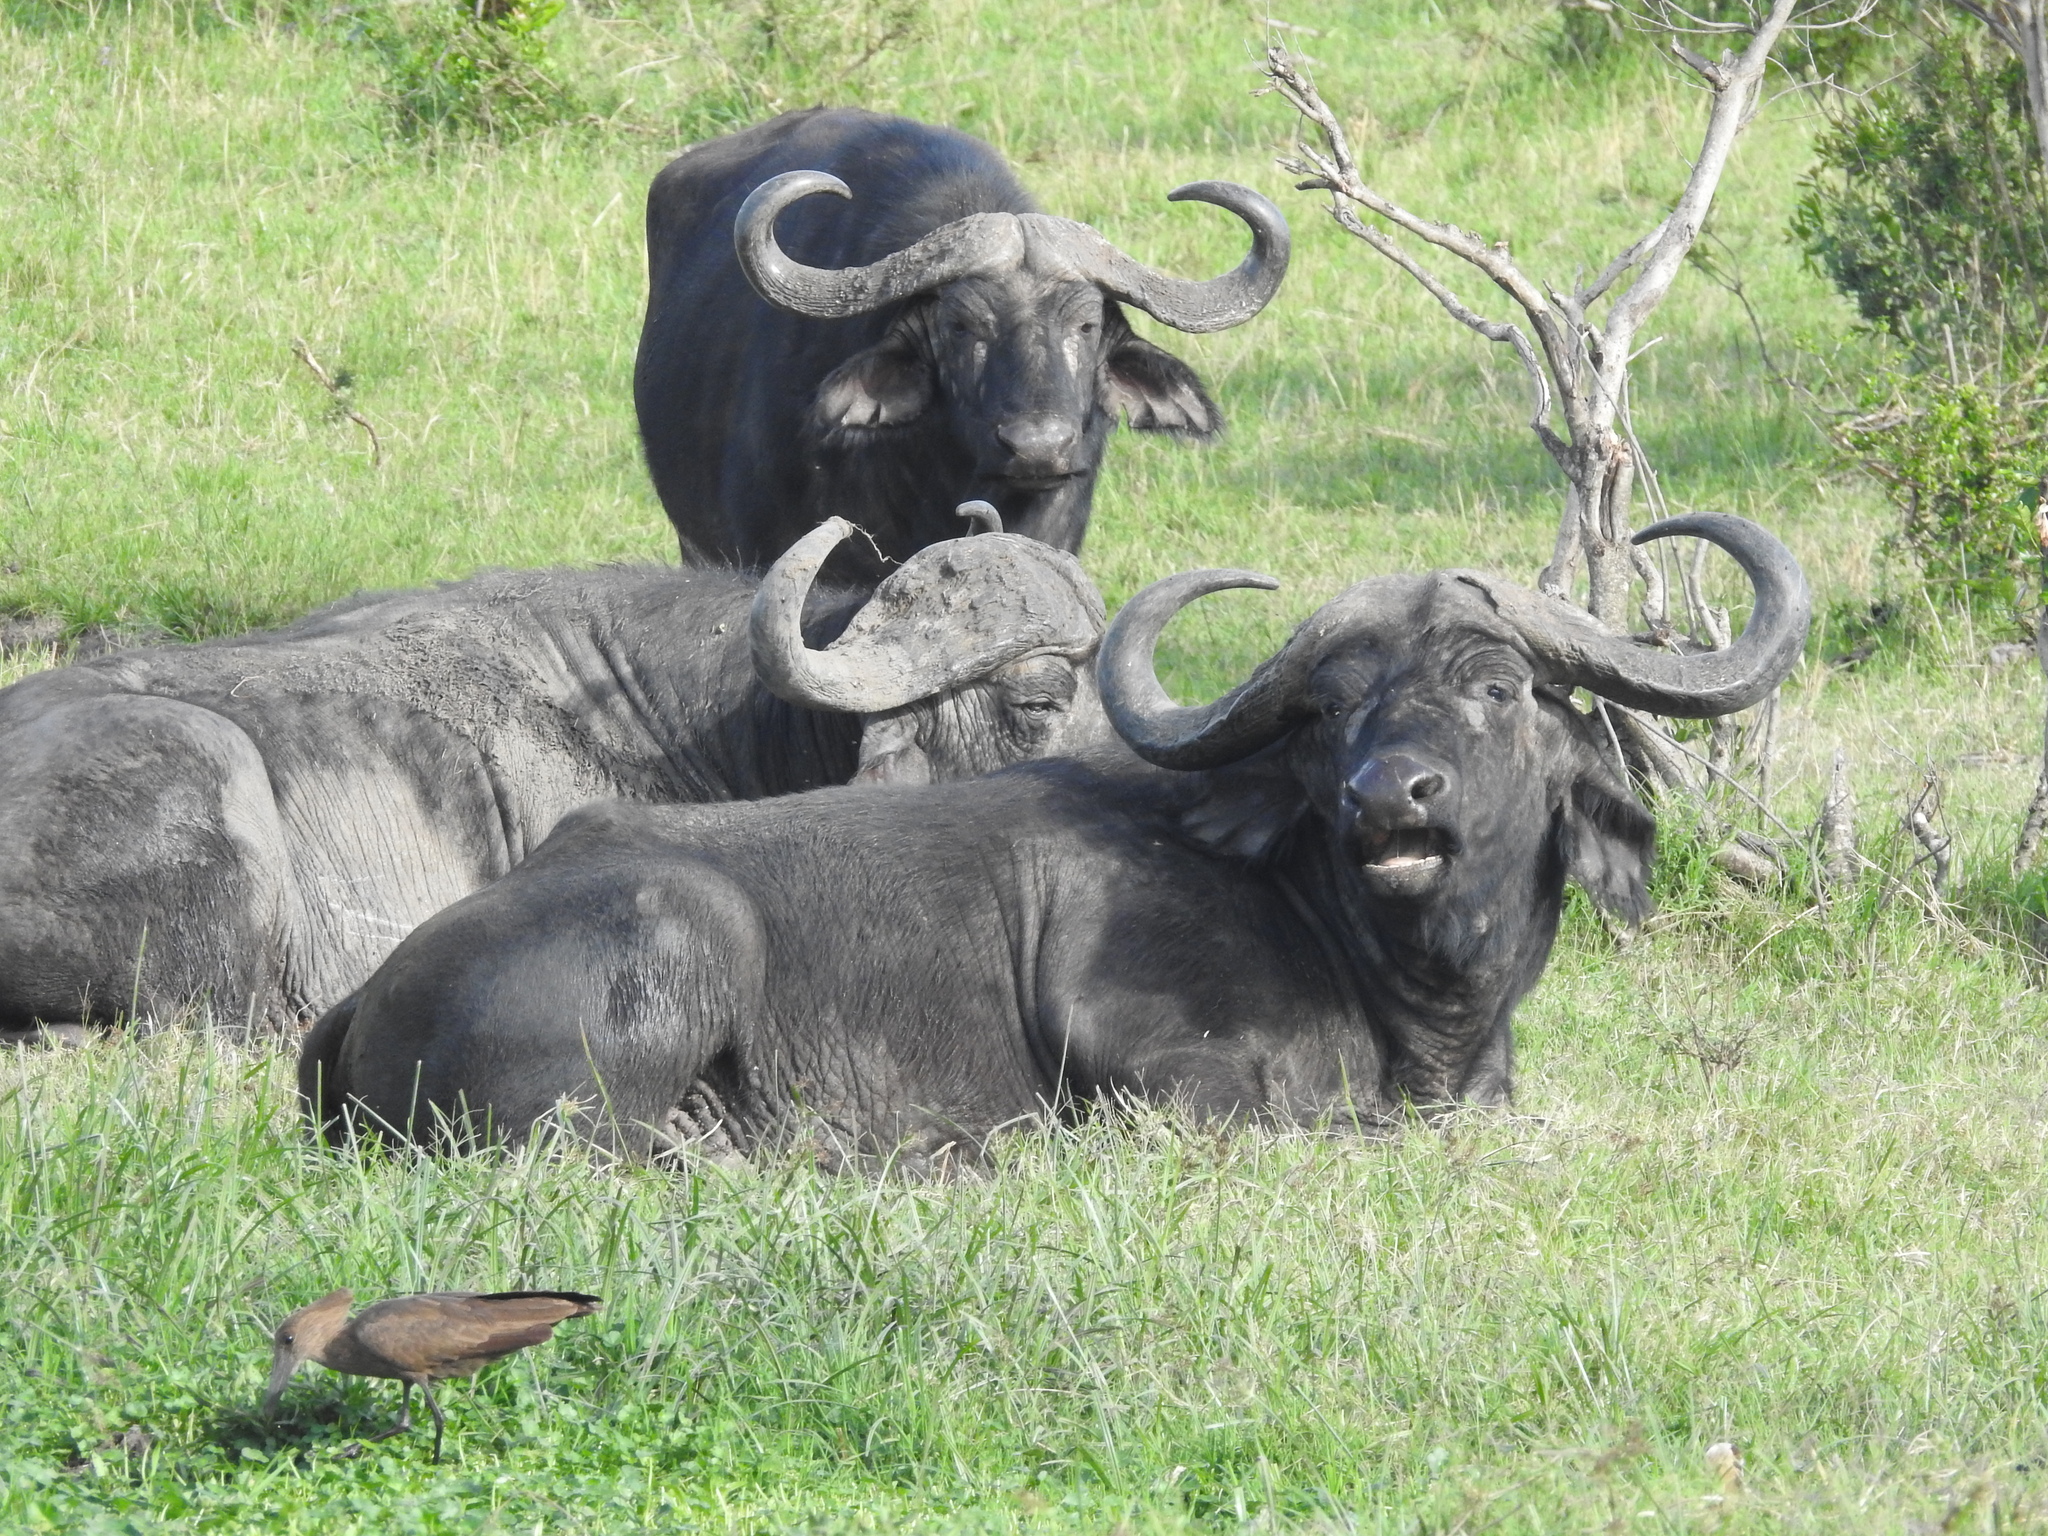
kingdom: Animalia
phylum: Chordata
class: Mammalia
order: Artiodactyla
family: Bovidae
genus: Syncerus
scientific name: Syncerus caffer
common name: African buffalo
